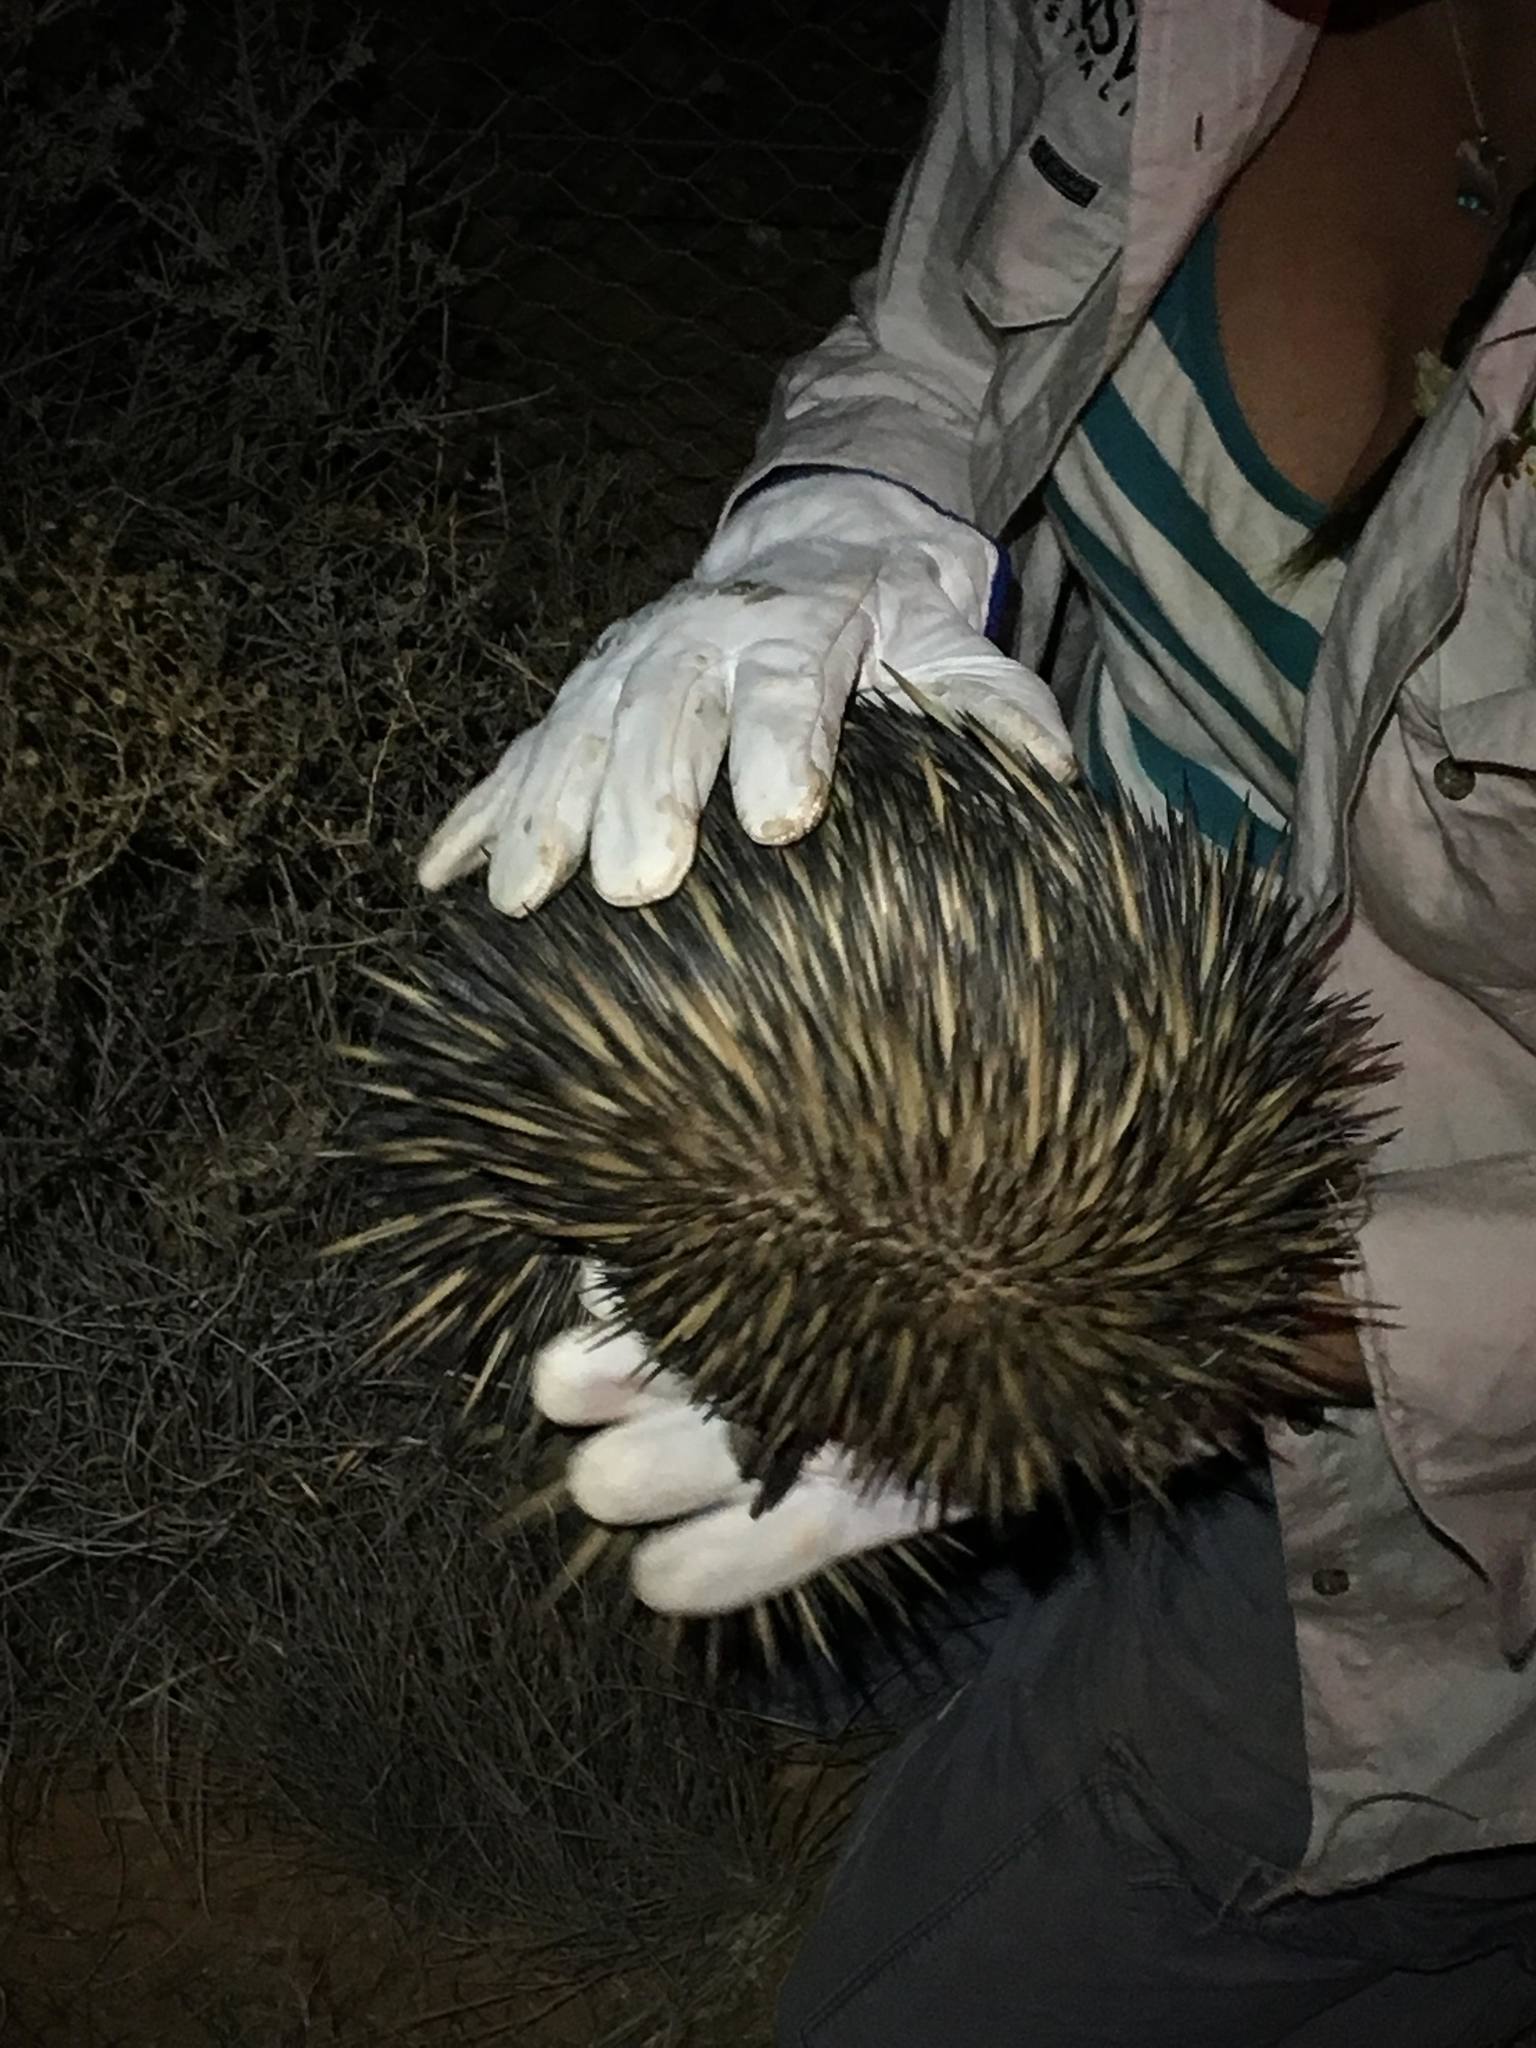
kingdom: Animalia
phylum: Chordata
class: Mammalia
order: Monotremata
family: Tachyglossidae
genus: Tachyglossus
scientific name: Tachyglossus aculeatus
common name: Short-beaked echidna
